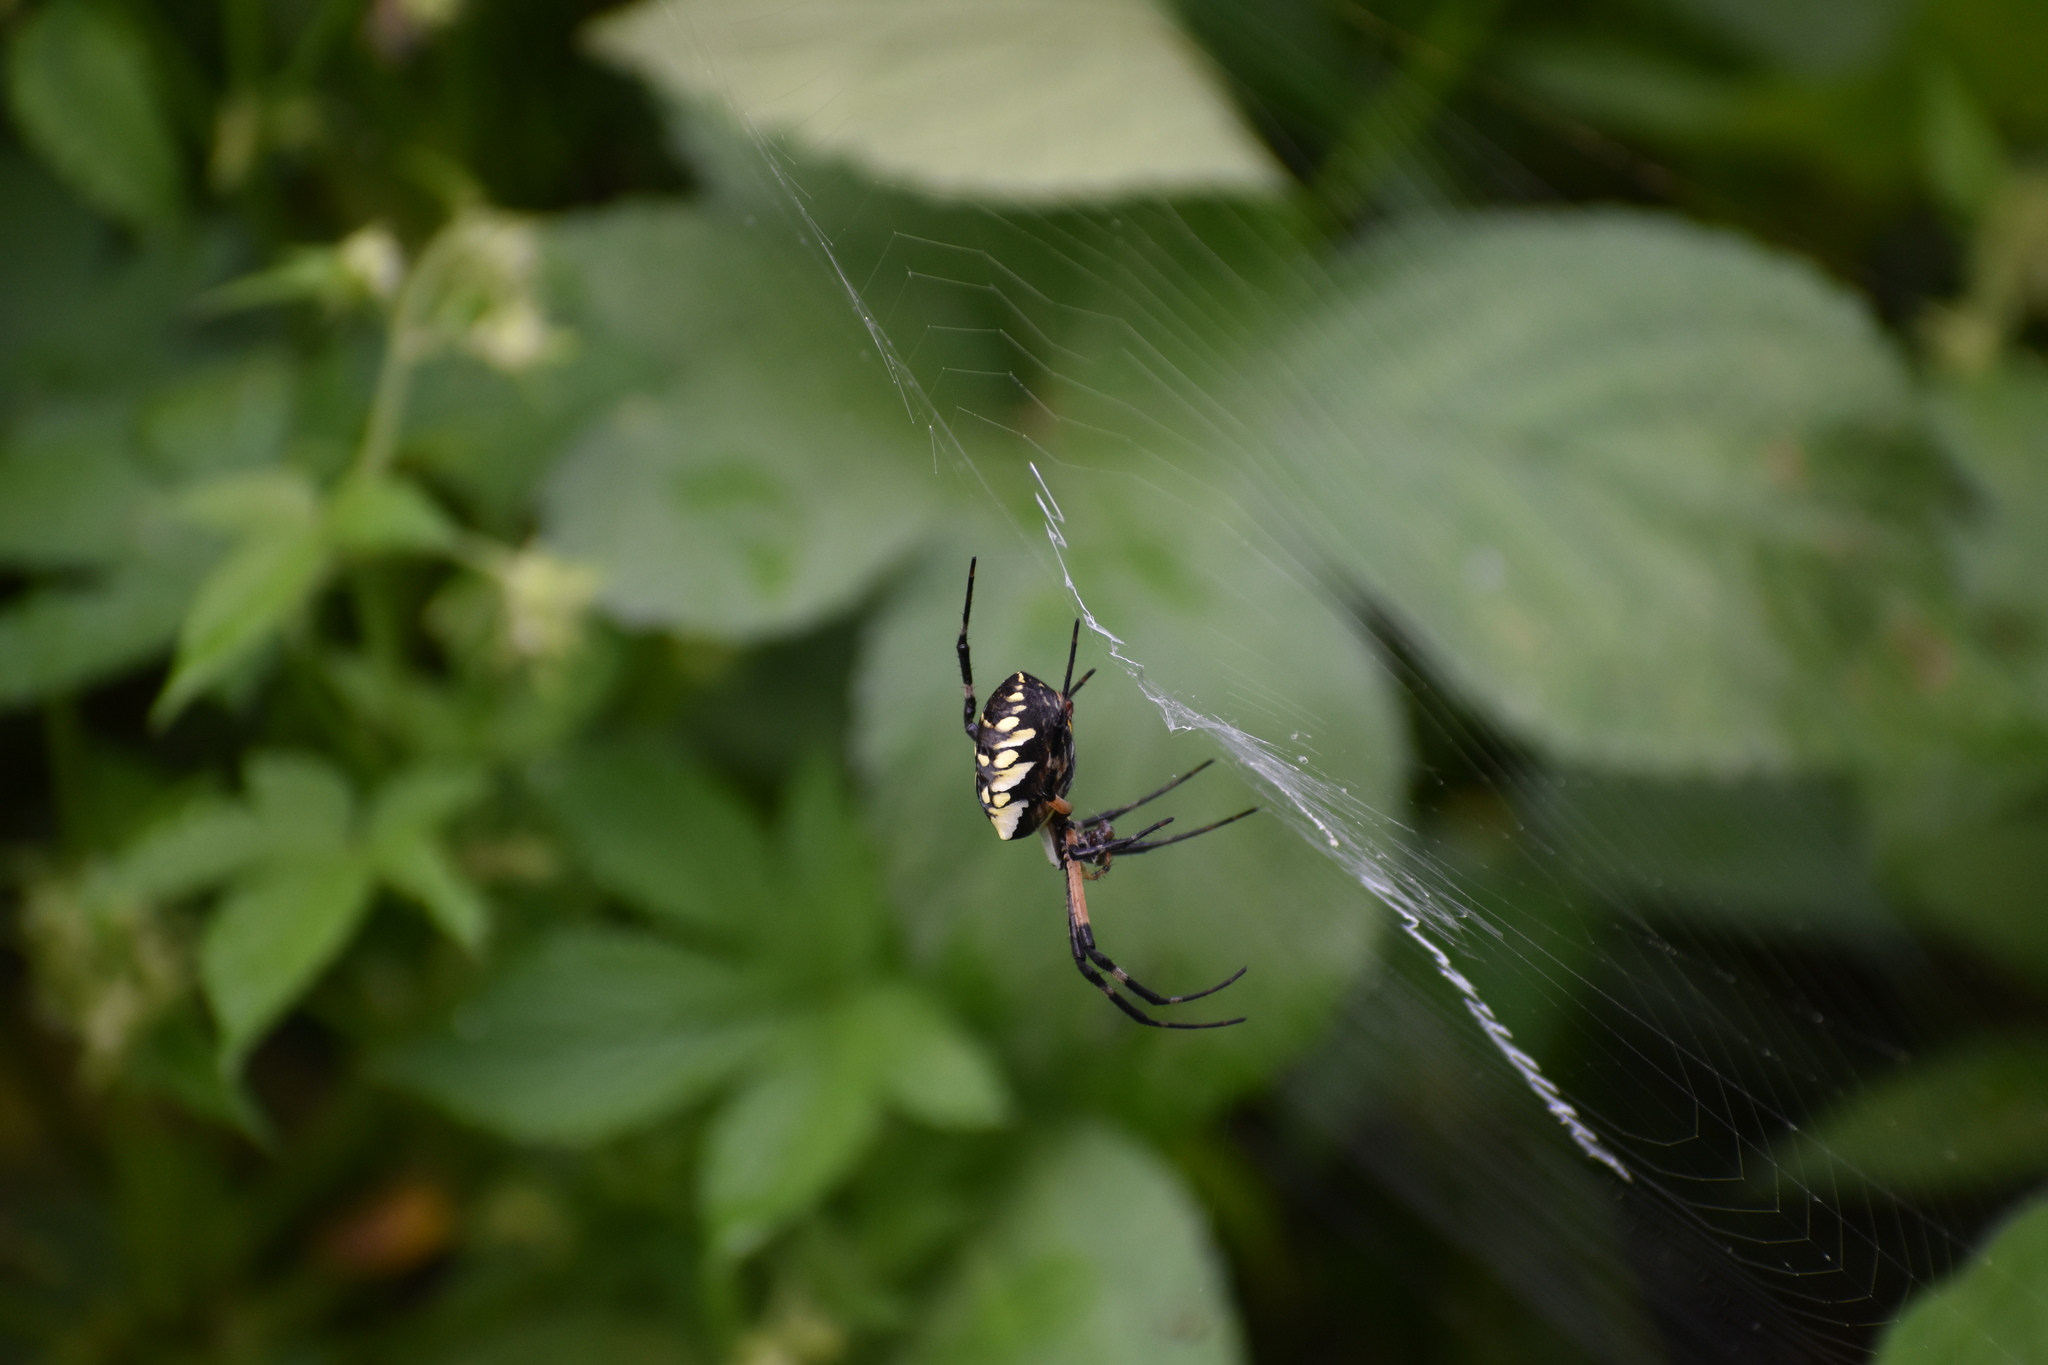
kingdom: Animalia
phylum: Arthropoda
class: Arachnida
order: Araneae
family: Araneidae
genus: Argiope
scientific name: Argiope aurantia
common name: Orb weavers
